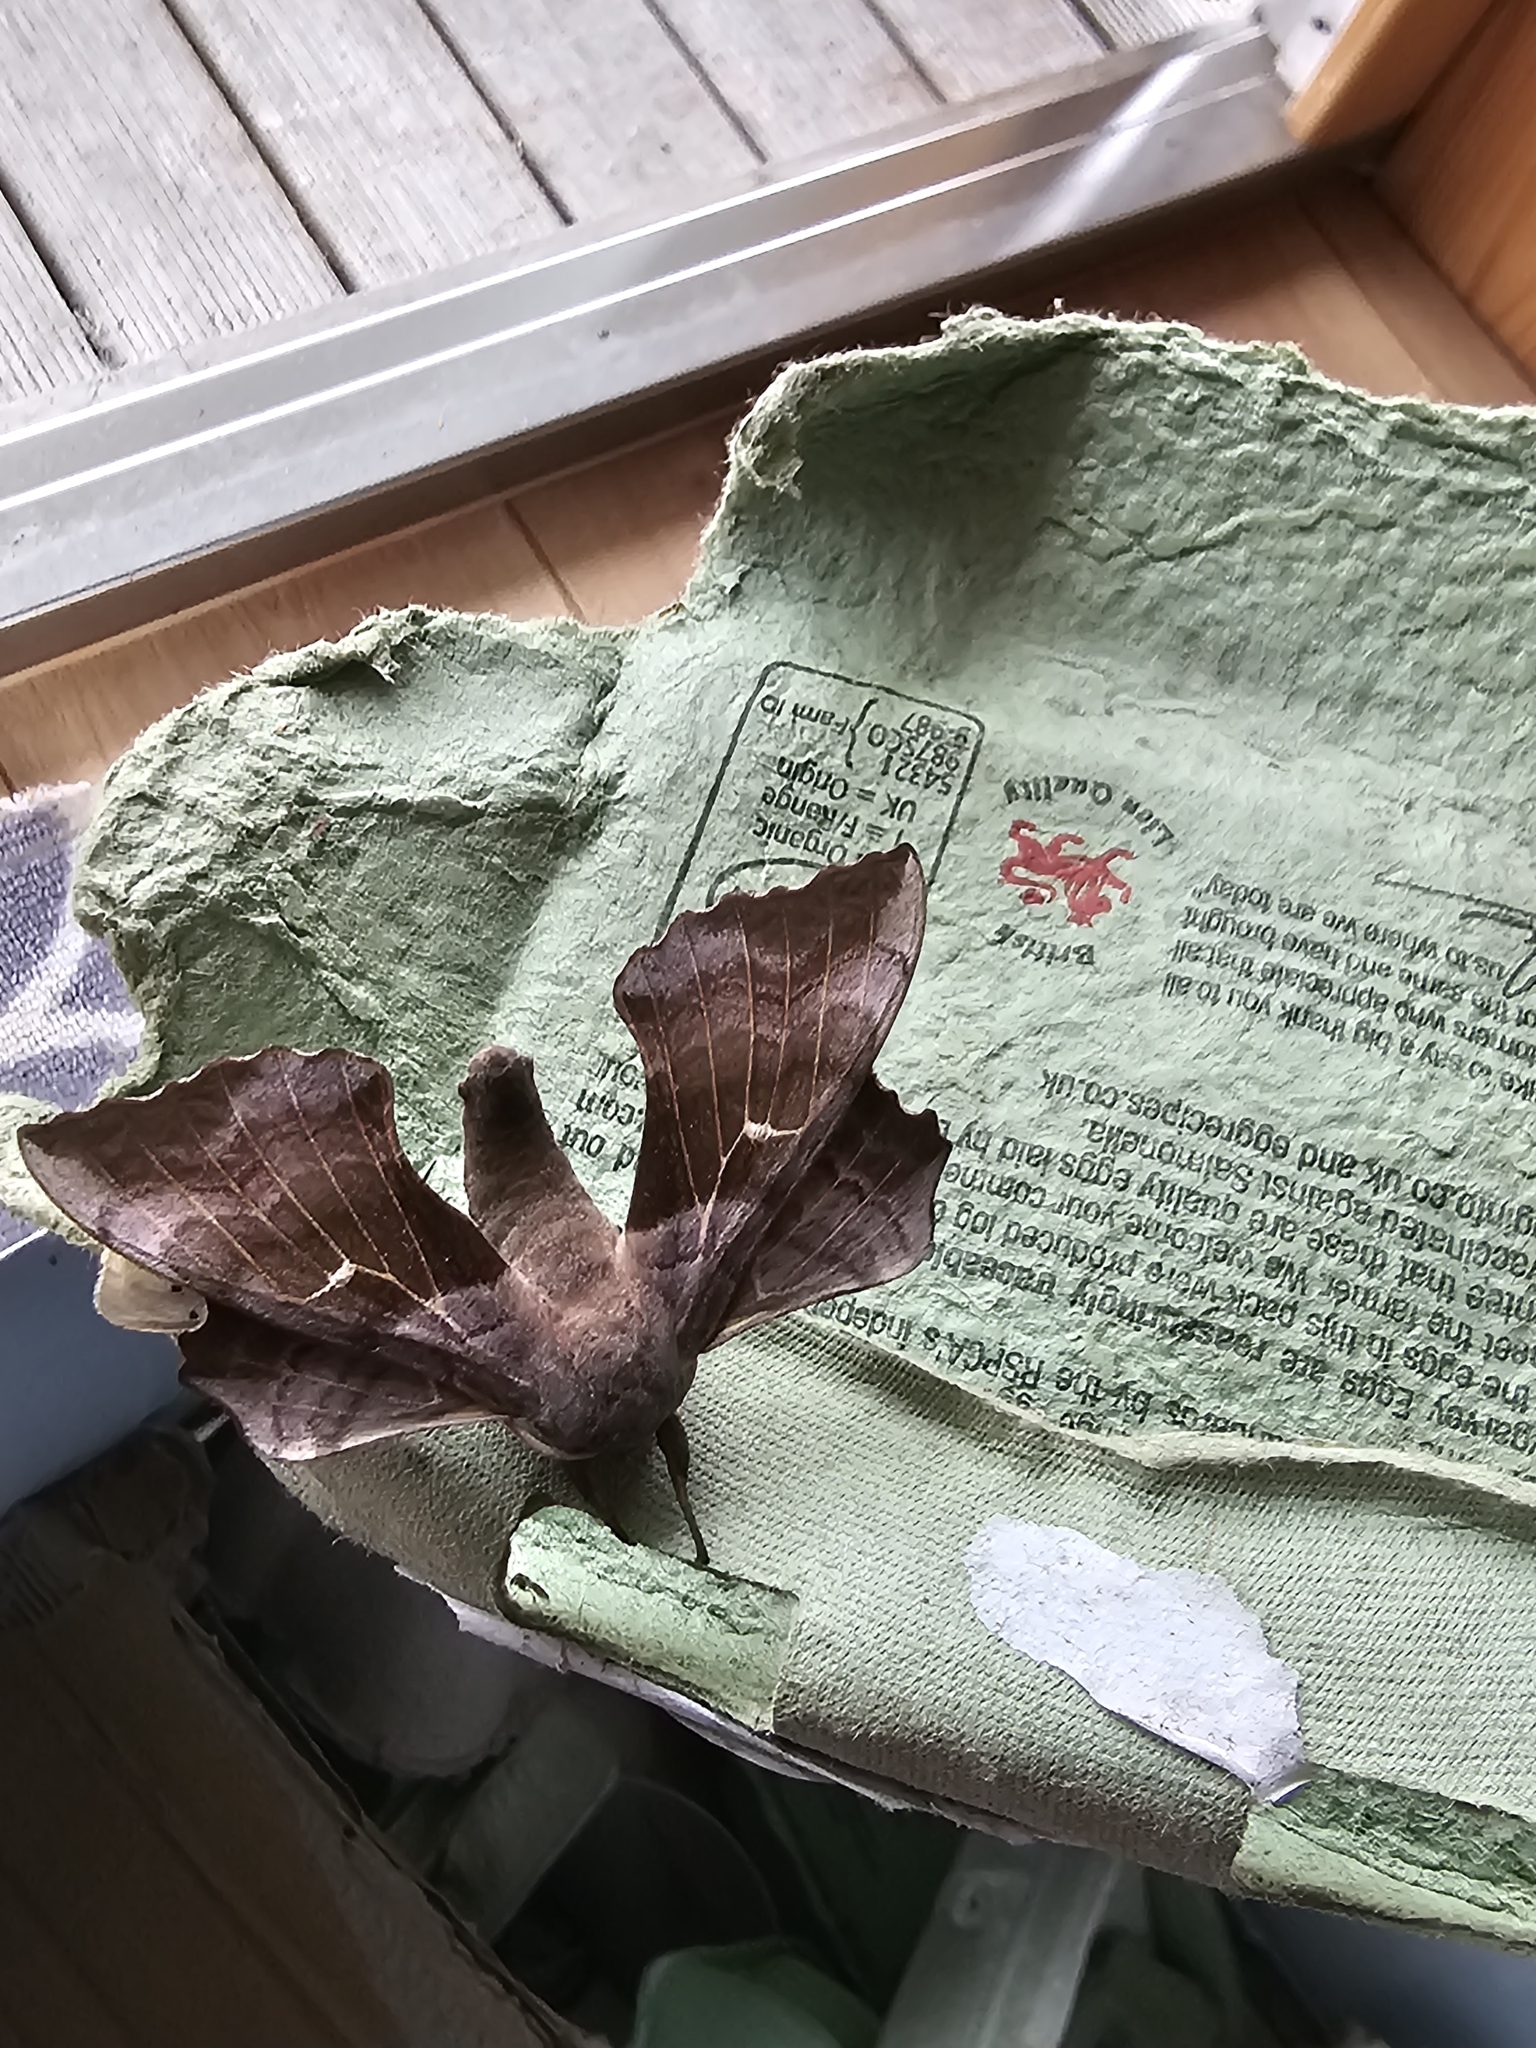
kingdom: Animalia
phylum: Arthropoda
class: Insecta
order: Lepidoptera
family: Sphingidae
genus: Laothoe
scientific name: Laothoe populi
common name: Poplar hawk-moth
